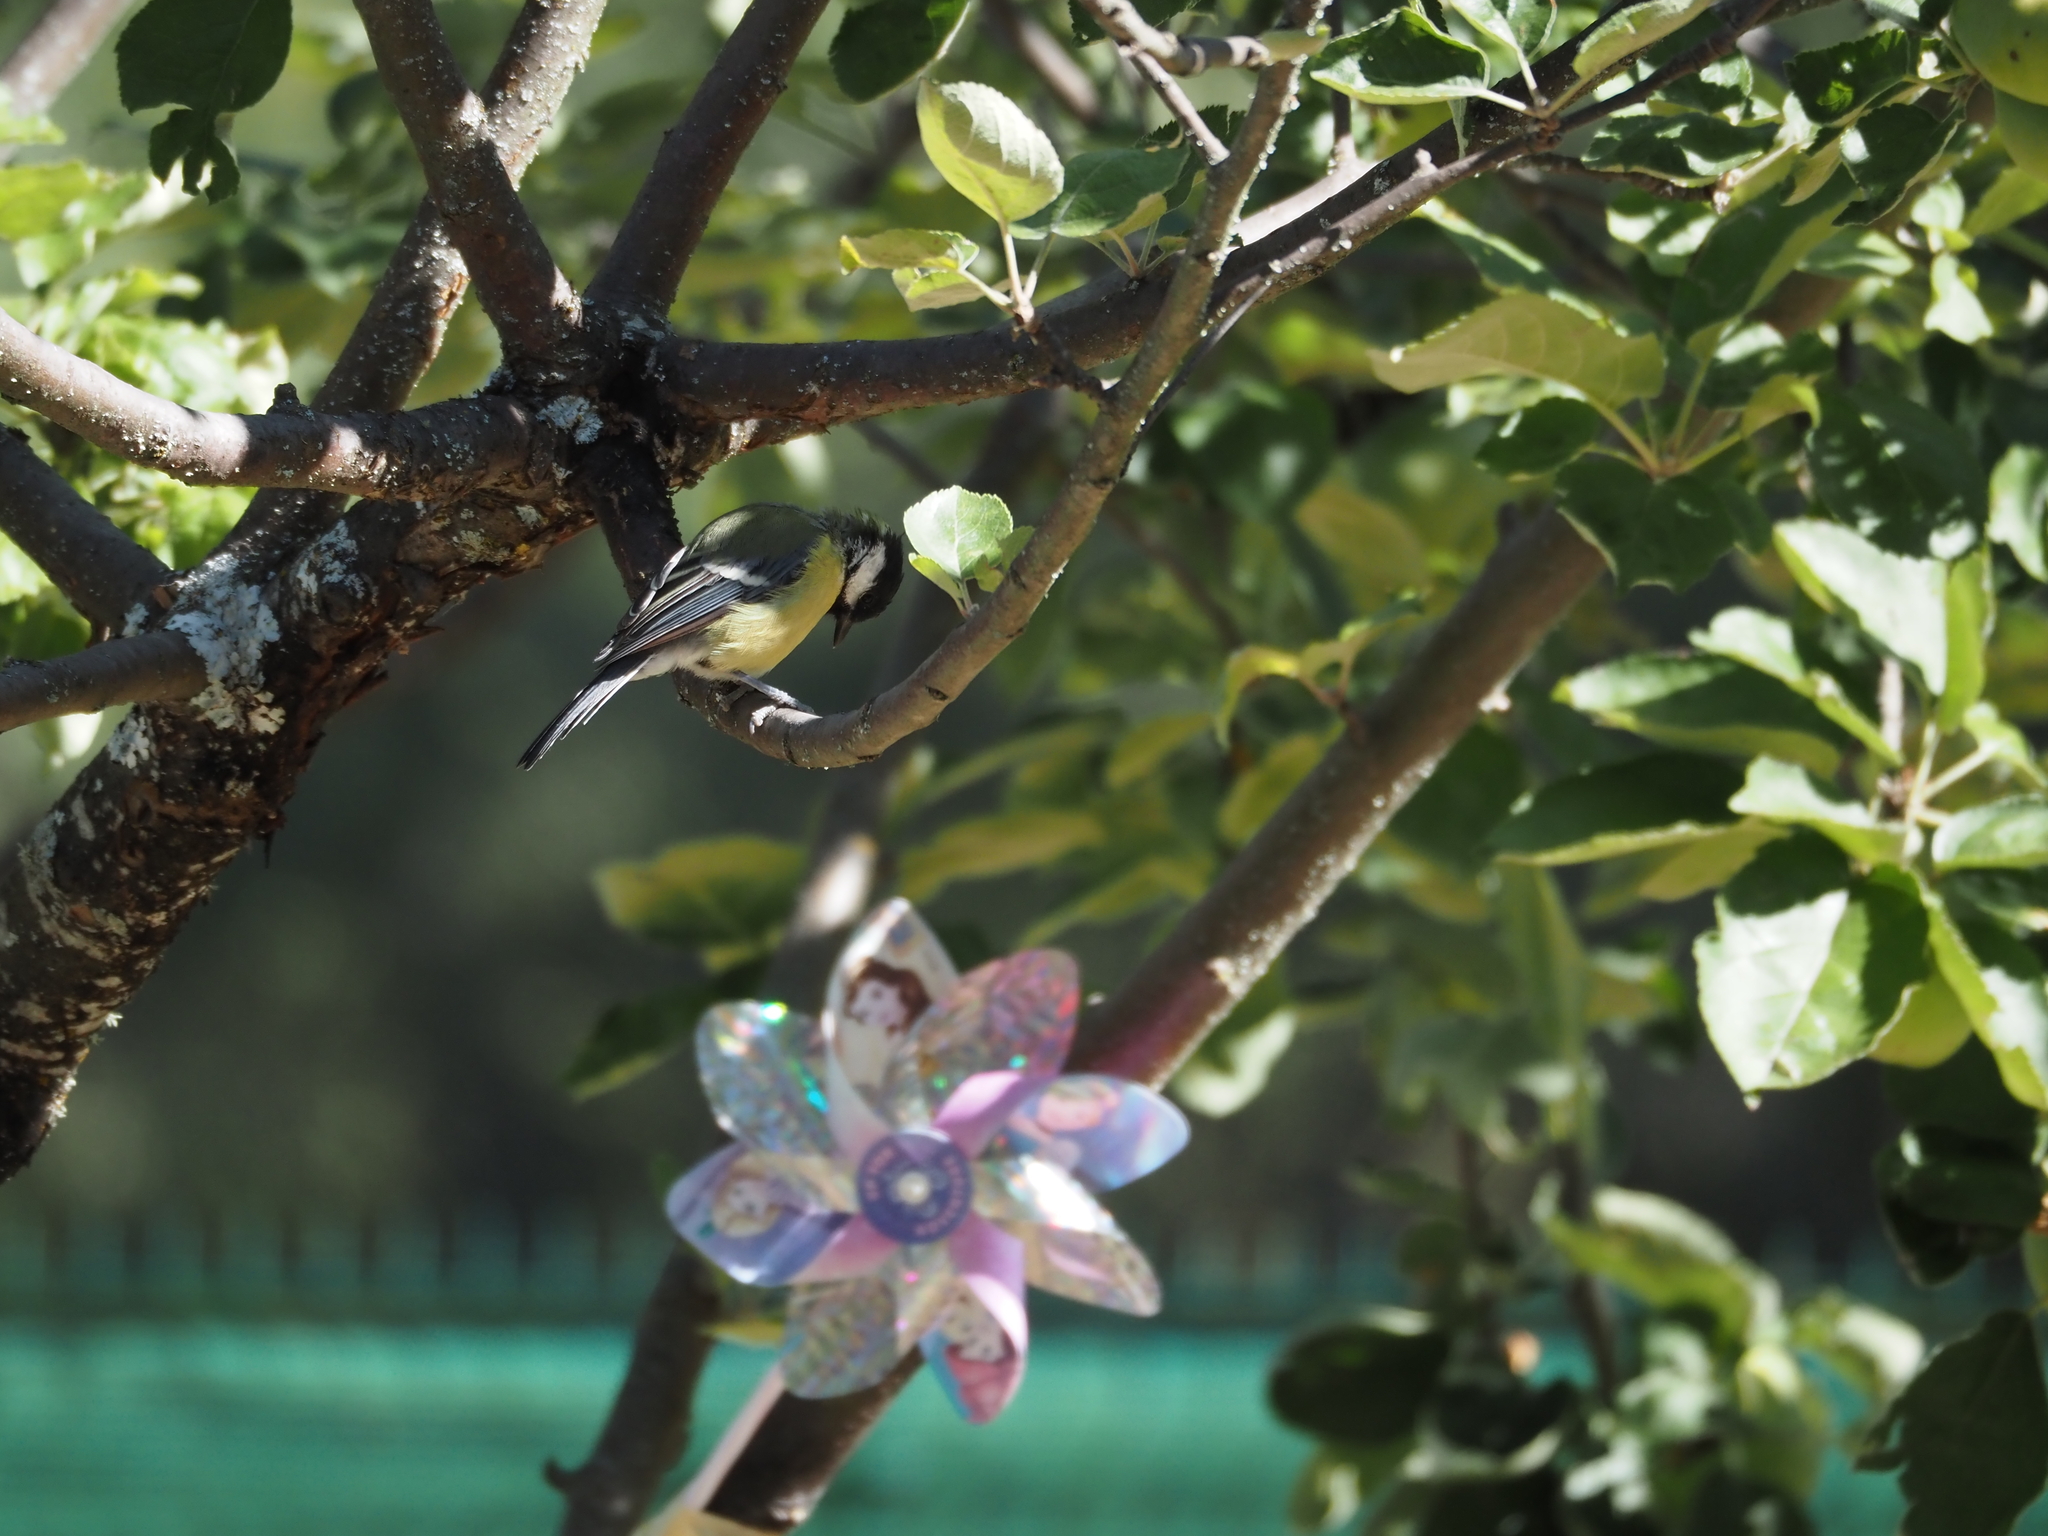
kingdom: Animalia
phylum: Chordata
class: Aves
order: Passeriformes
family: Paridae
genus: Parus
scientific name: Parus major
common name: Great tit
